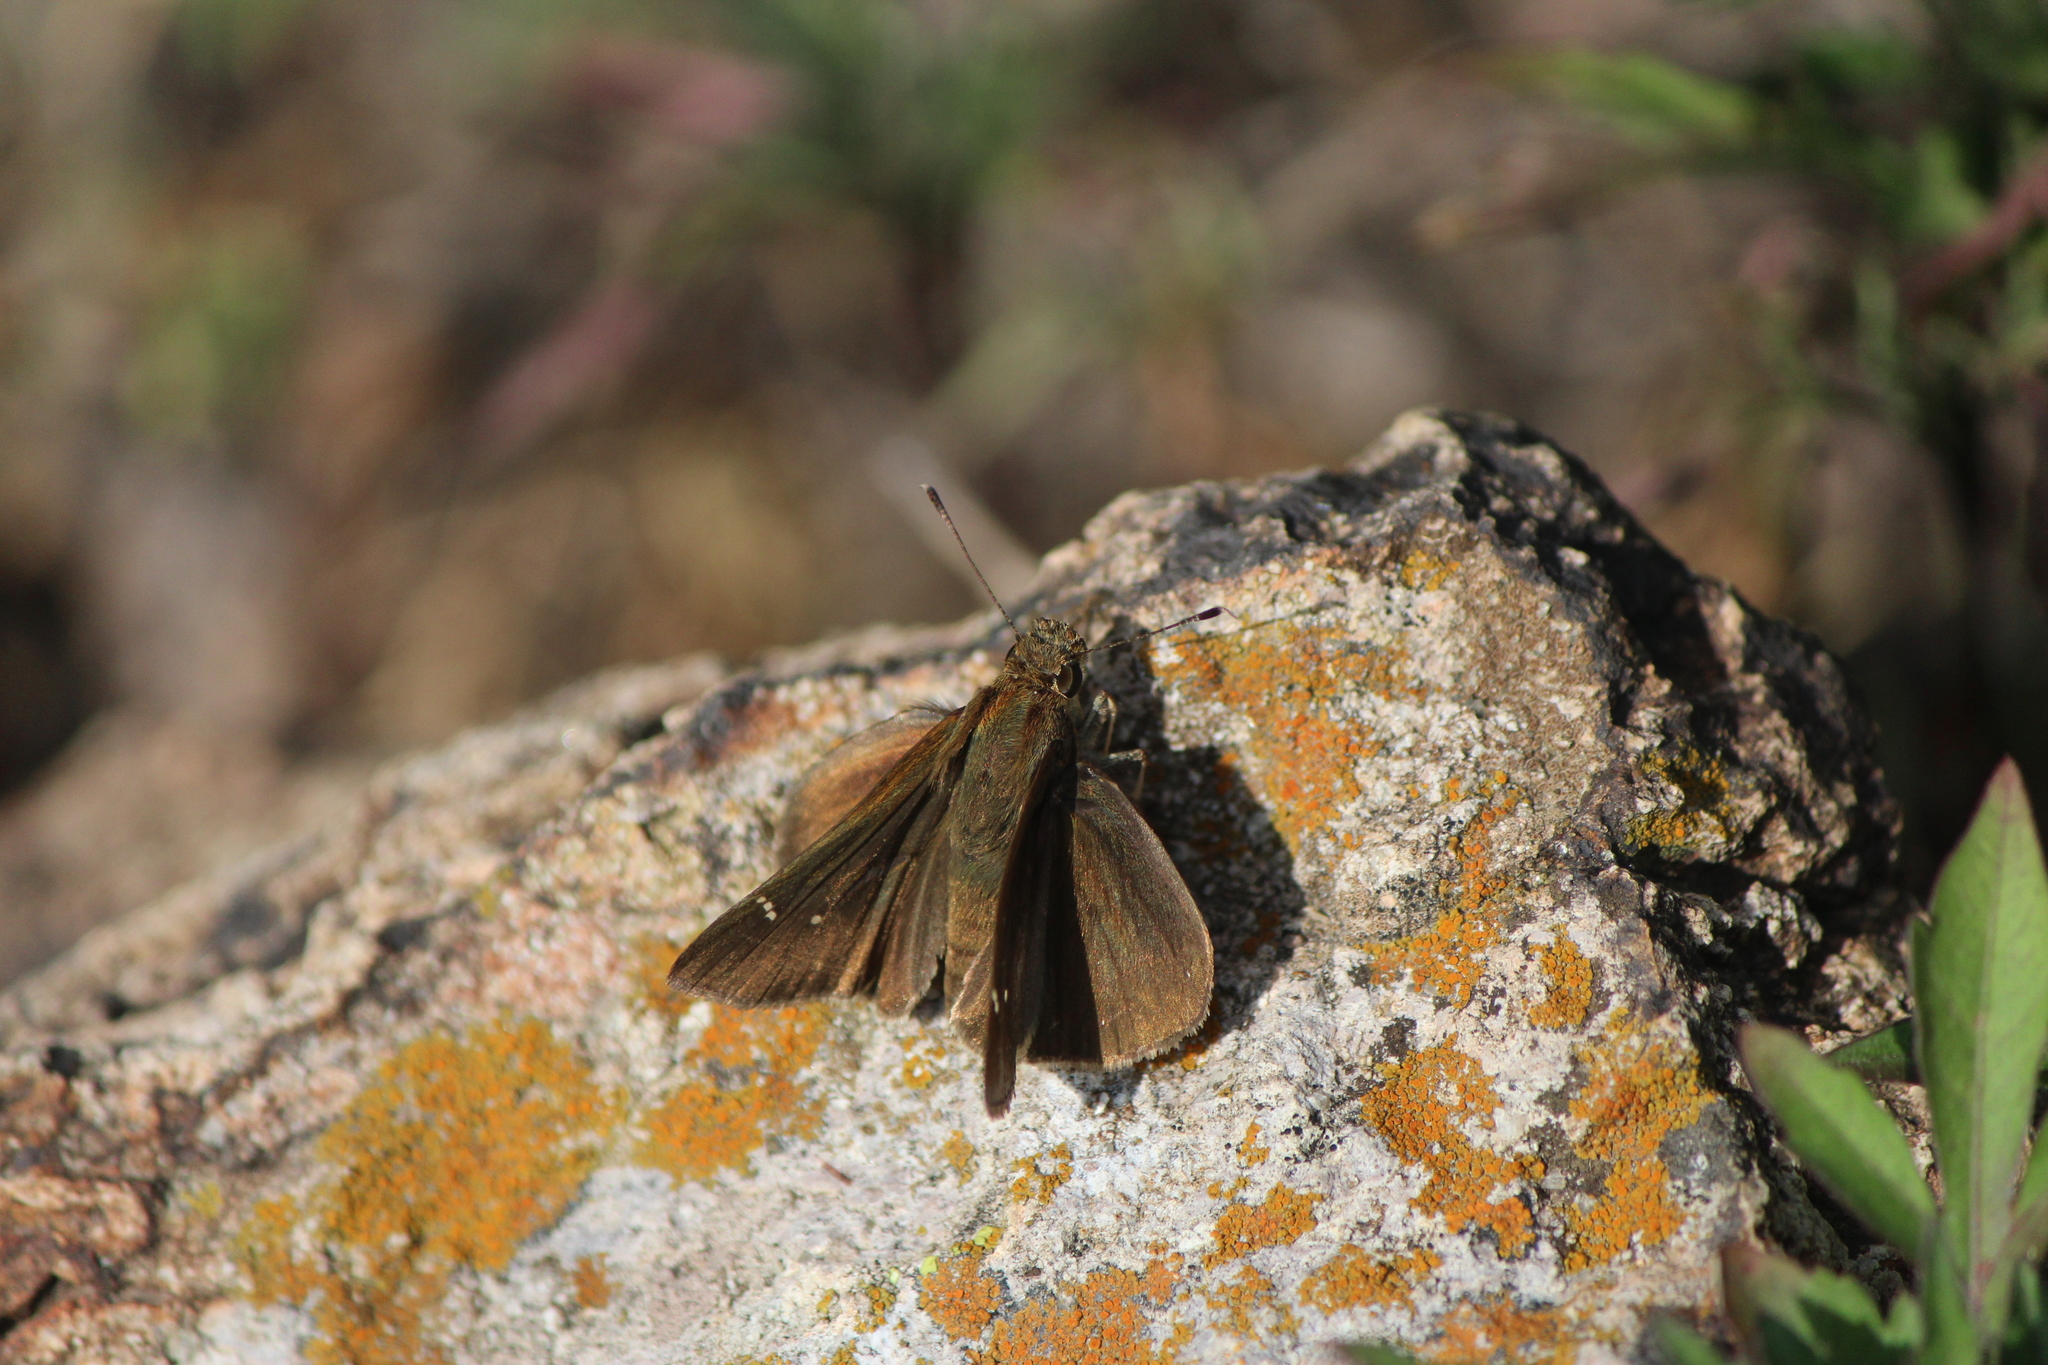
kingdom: Animalia
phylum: Arthropoda
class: Insecta
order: Lepidoptera
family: Hesperiidae
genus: Lerema
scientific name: Lerema accius
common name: Clouded skipper
